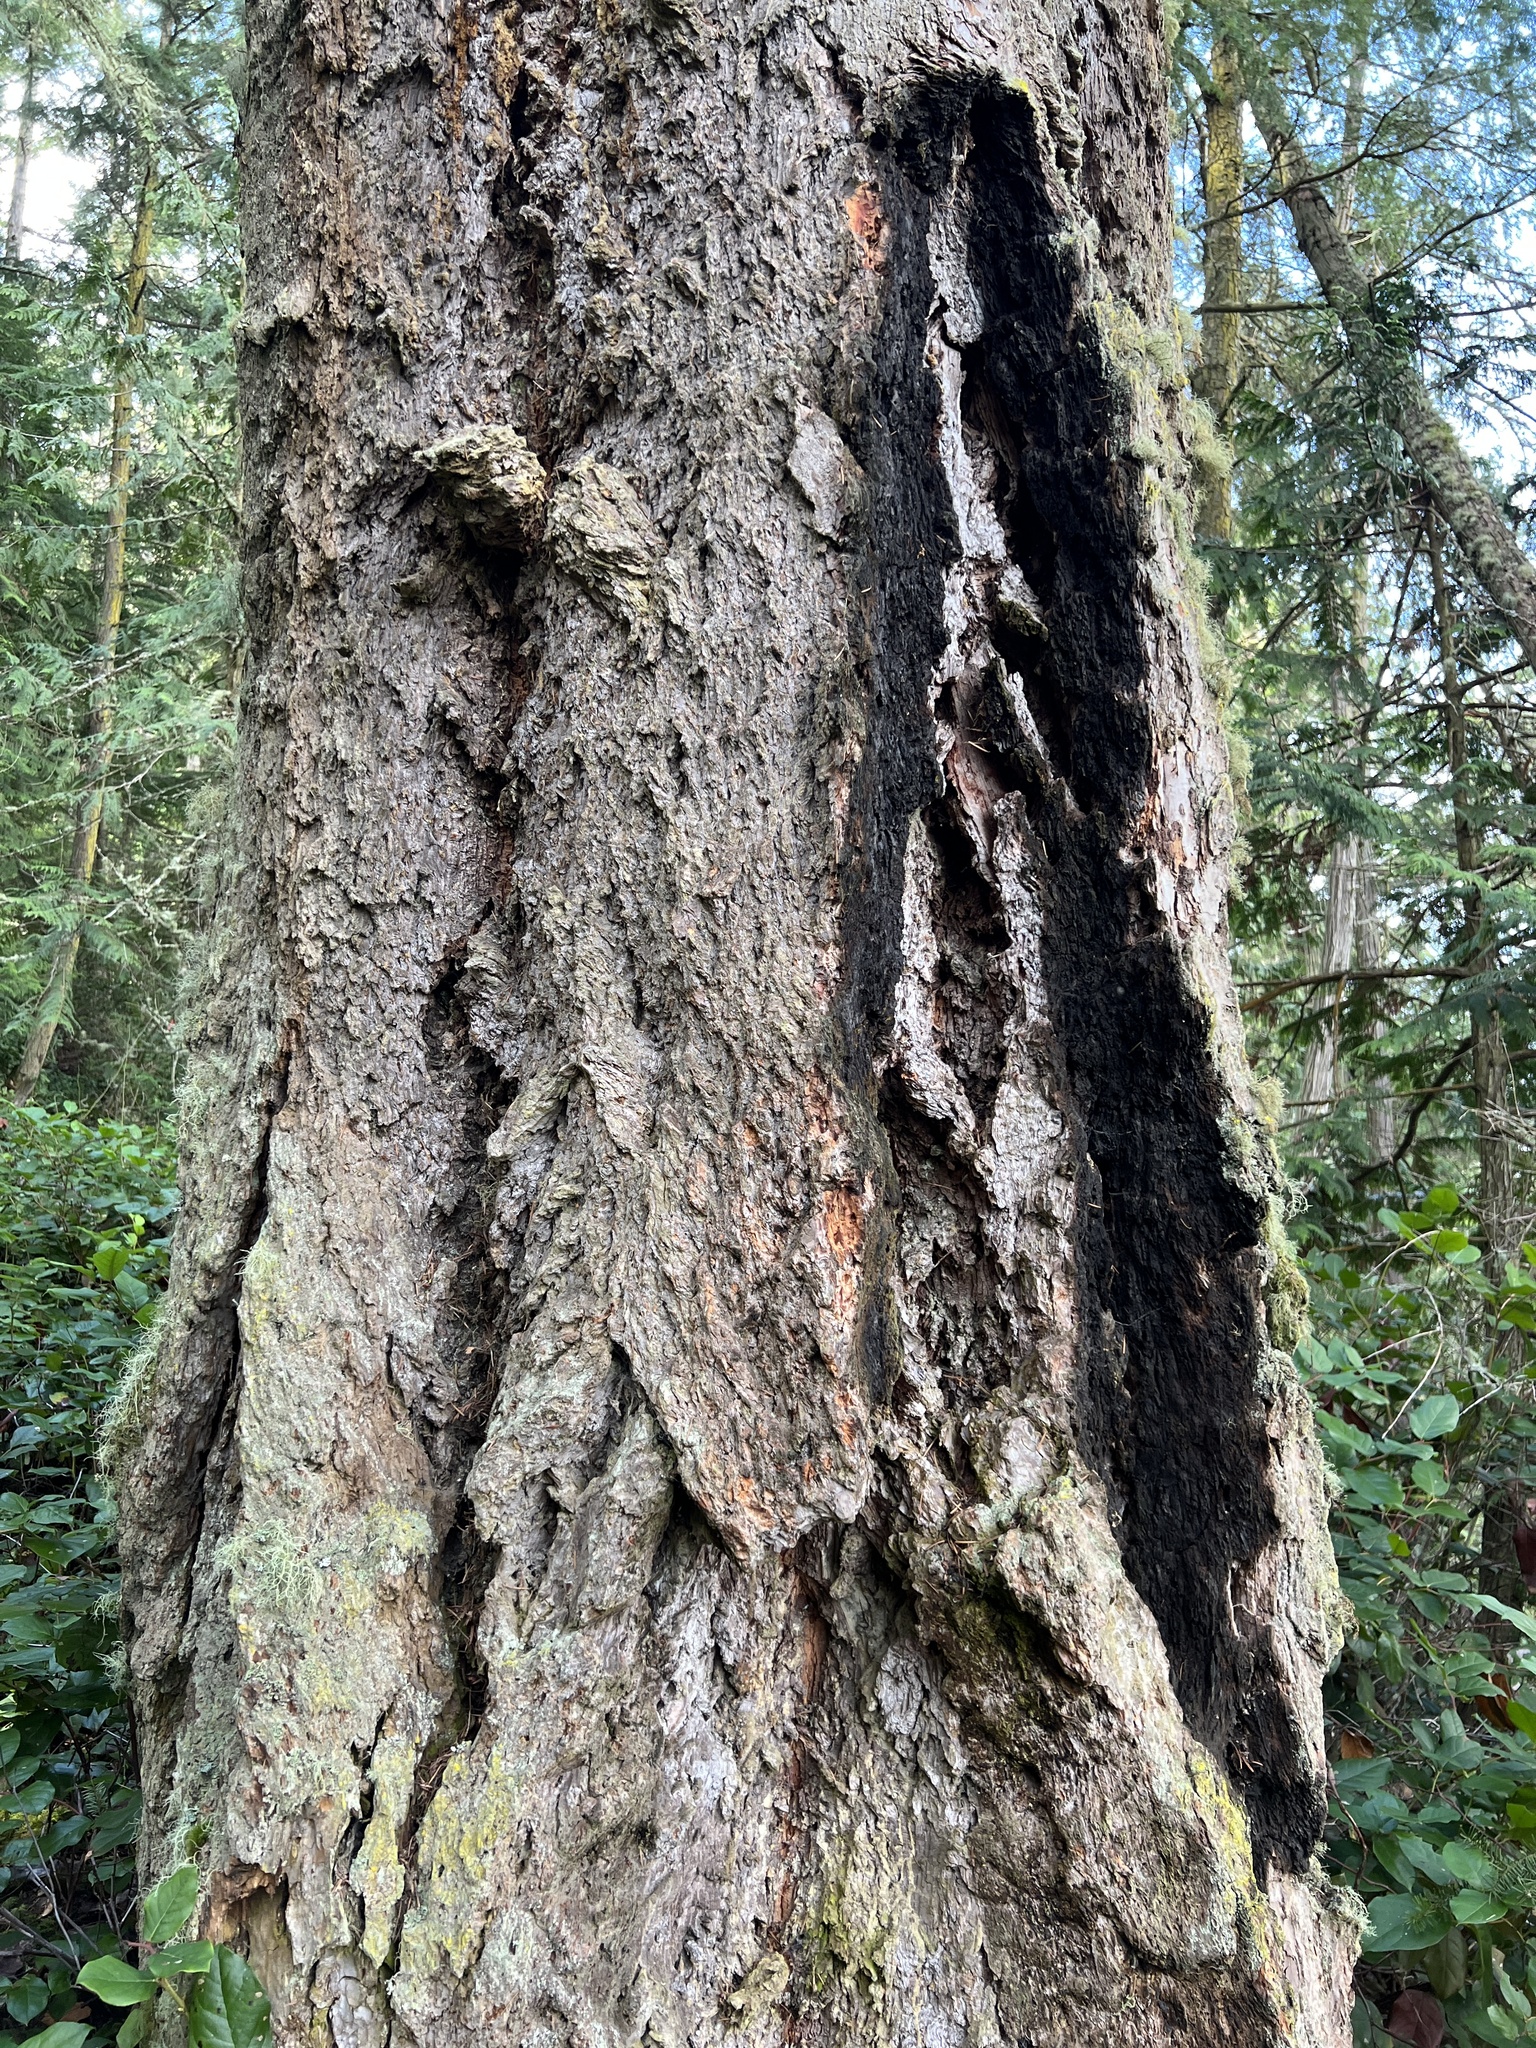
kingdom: Plantae
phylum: Tracheophyta
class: Pinopsida
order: Pinales
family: Pinaceae
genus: Pseudotsuga
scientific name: Pseudotsuga menziesii
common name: Douglas fir
